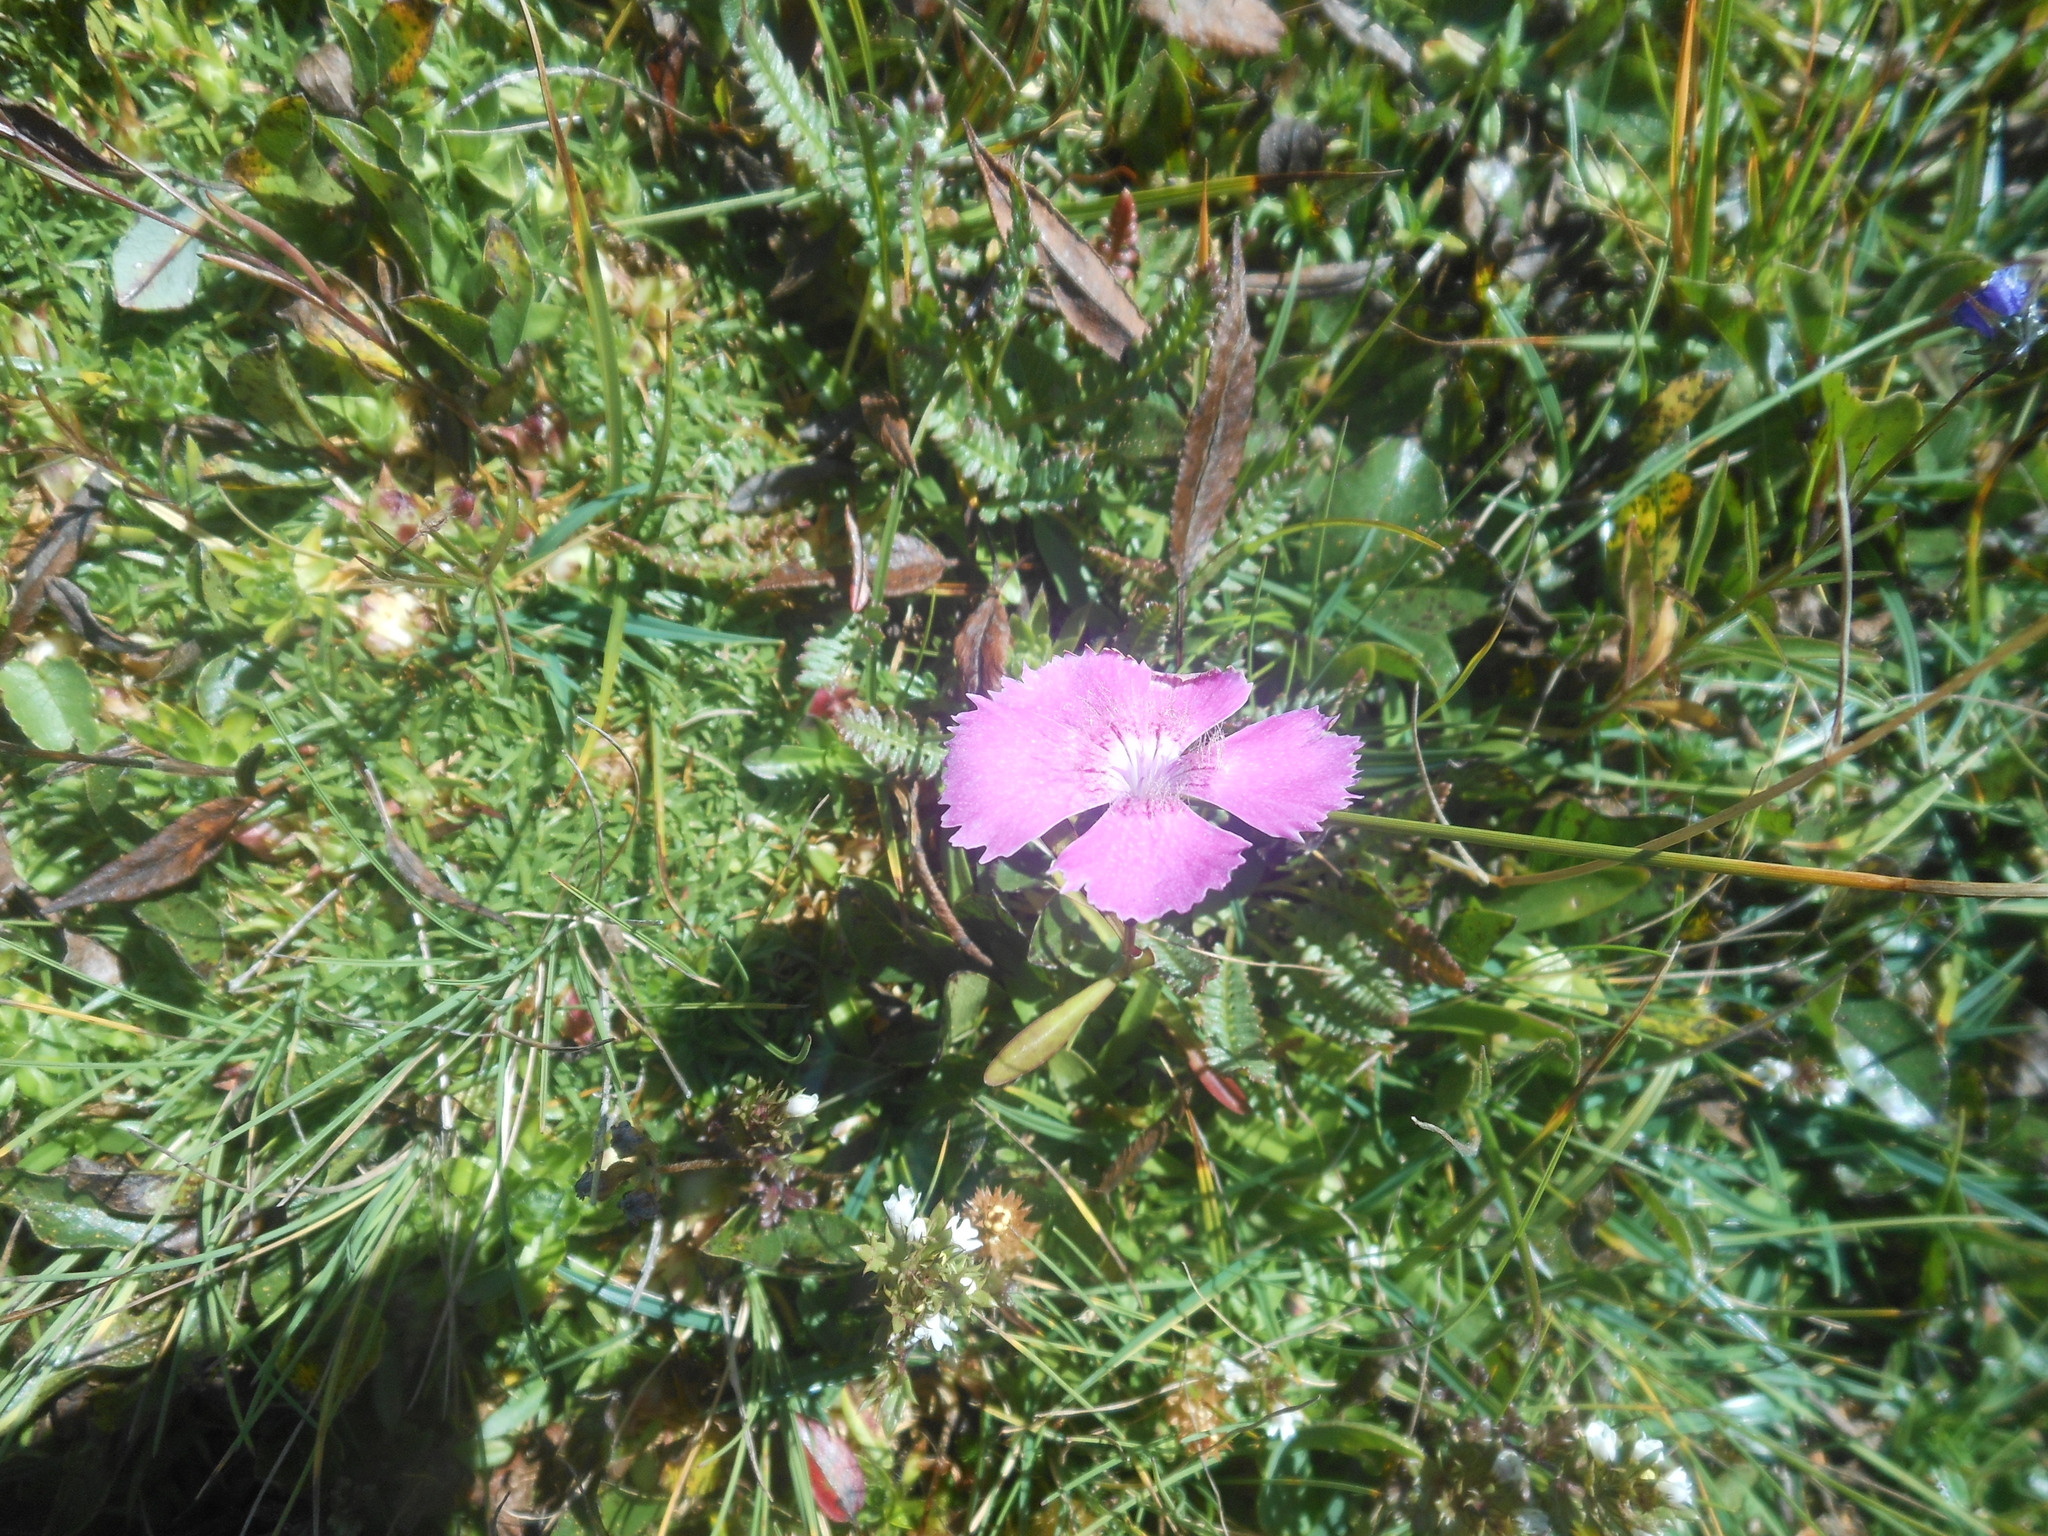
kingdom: Plantae
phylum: Tracheophyta
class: Magnoliopsida
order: Caryophyllales
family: Caryophyllaceae
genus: Dianthus
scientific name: Dianthus alpinus
